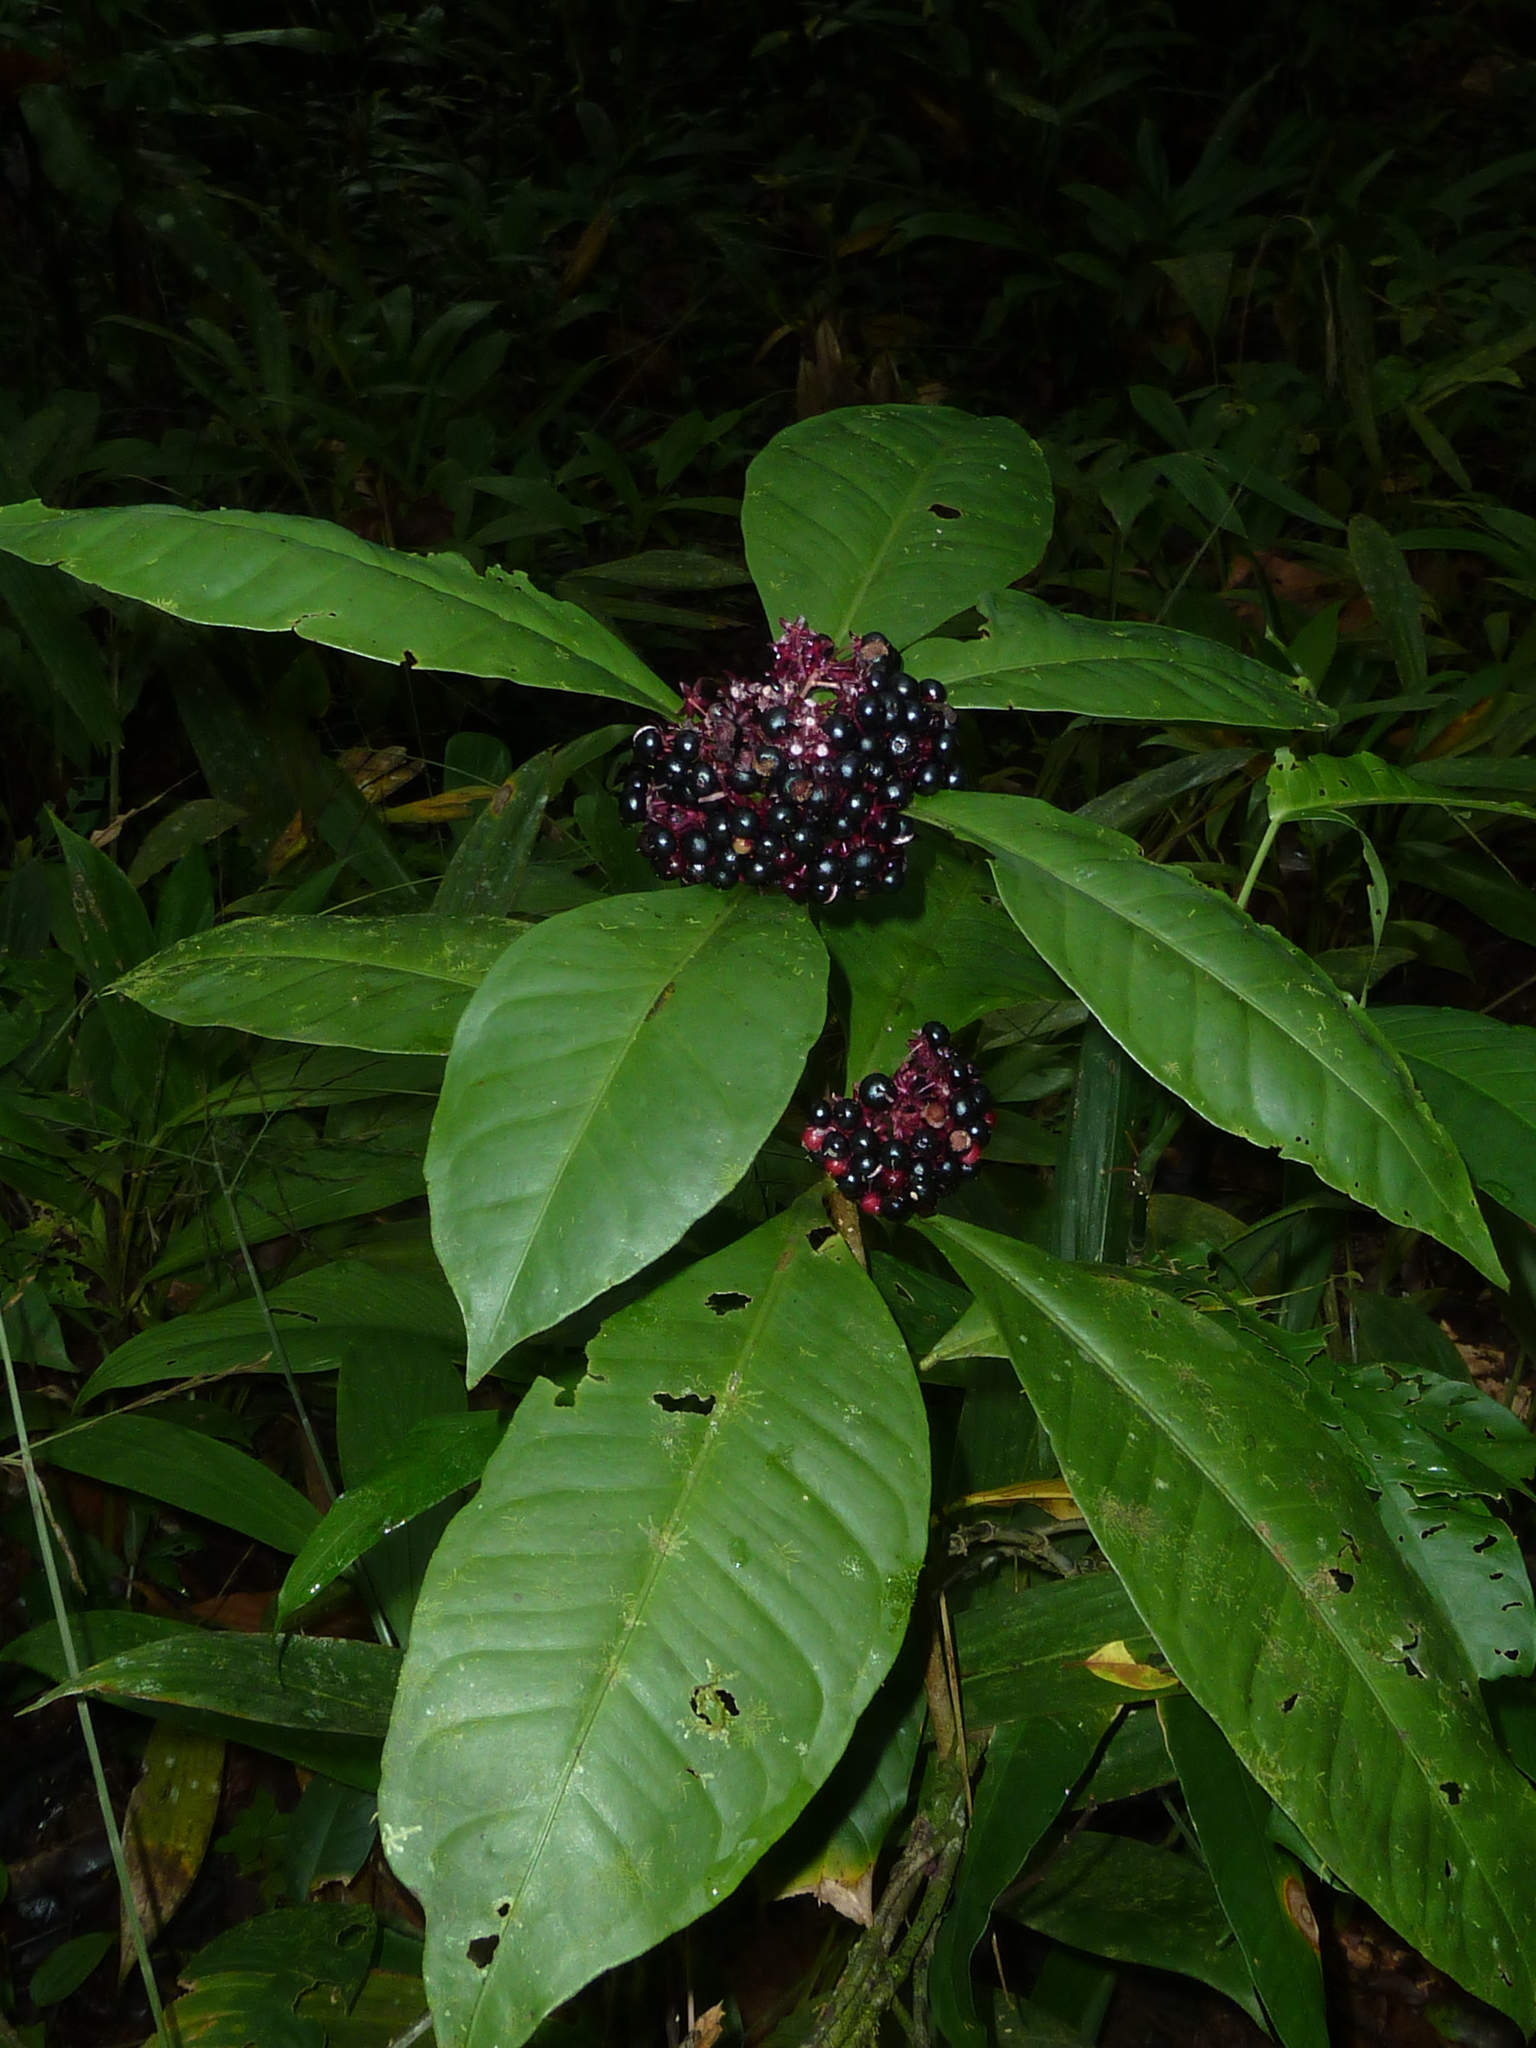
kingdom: Plantae
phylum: Tracheophyta
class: Magnoliopsida
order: Ericales
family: Primulaceae
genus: Ardisia
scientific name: Ardisia opegrapha
